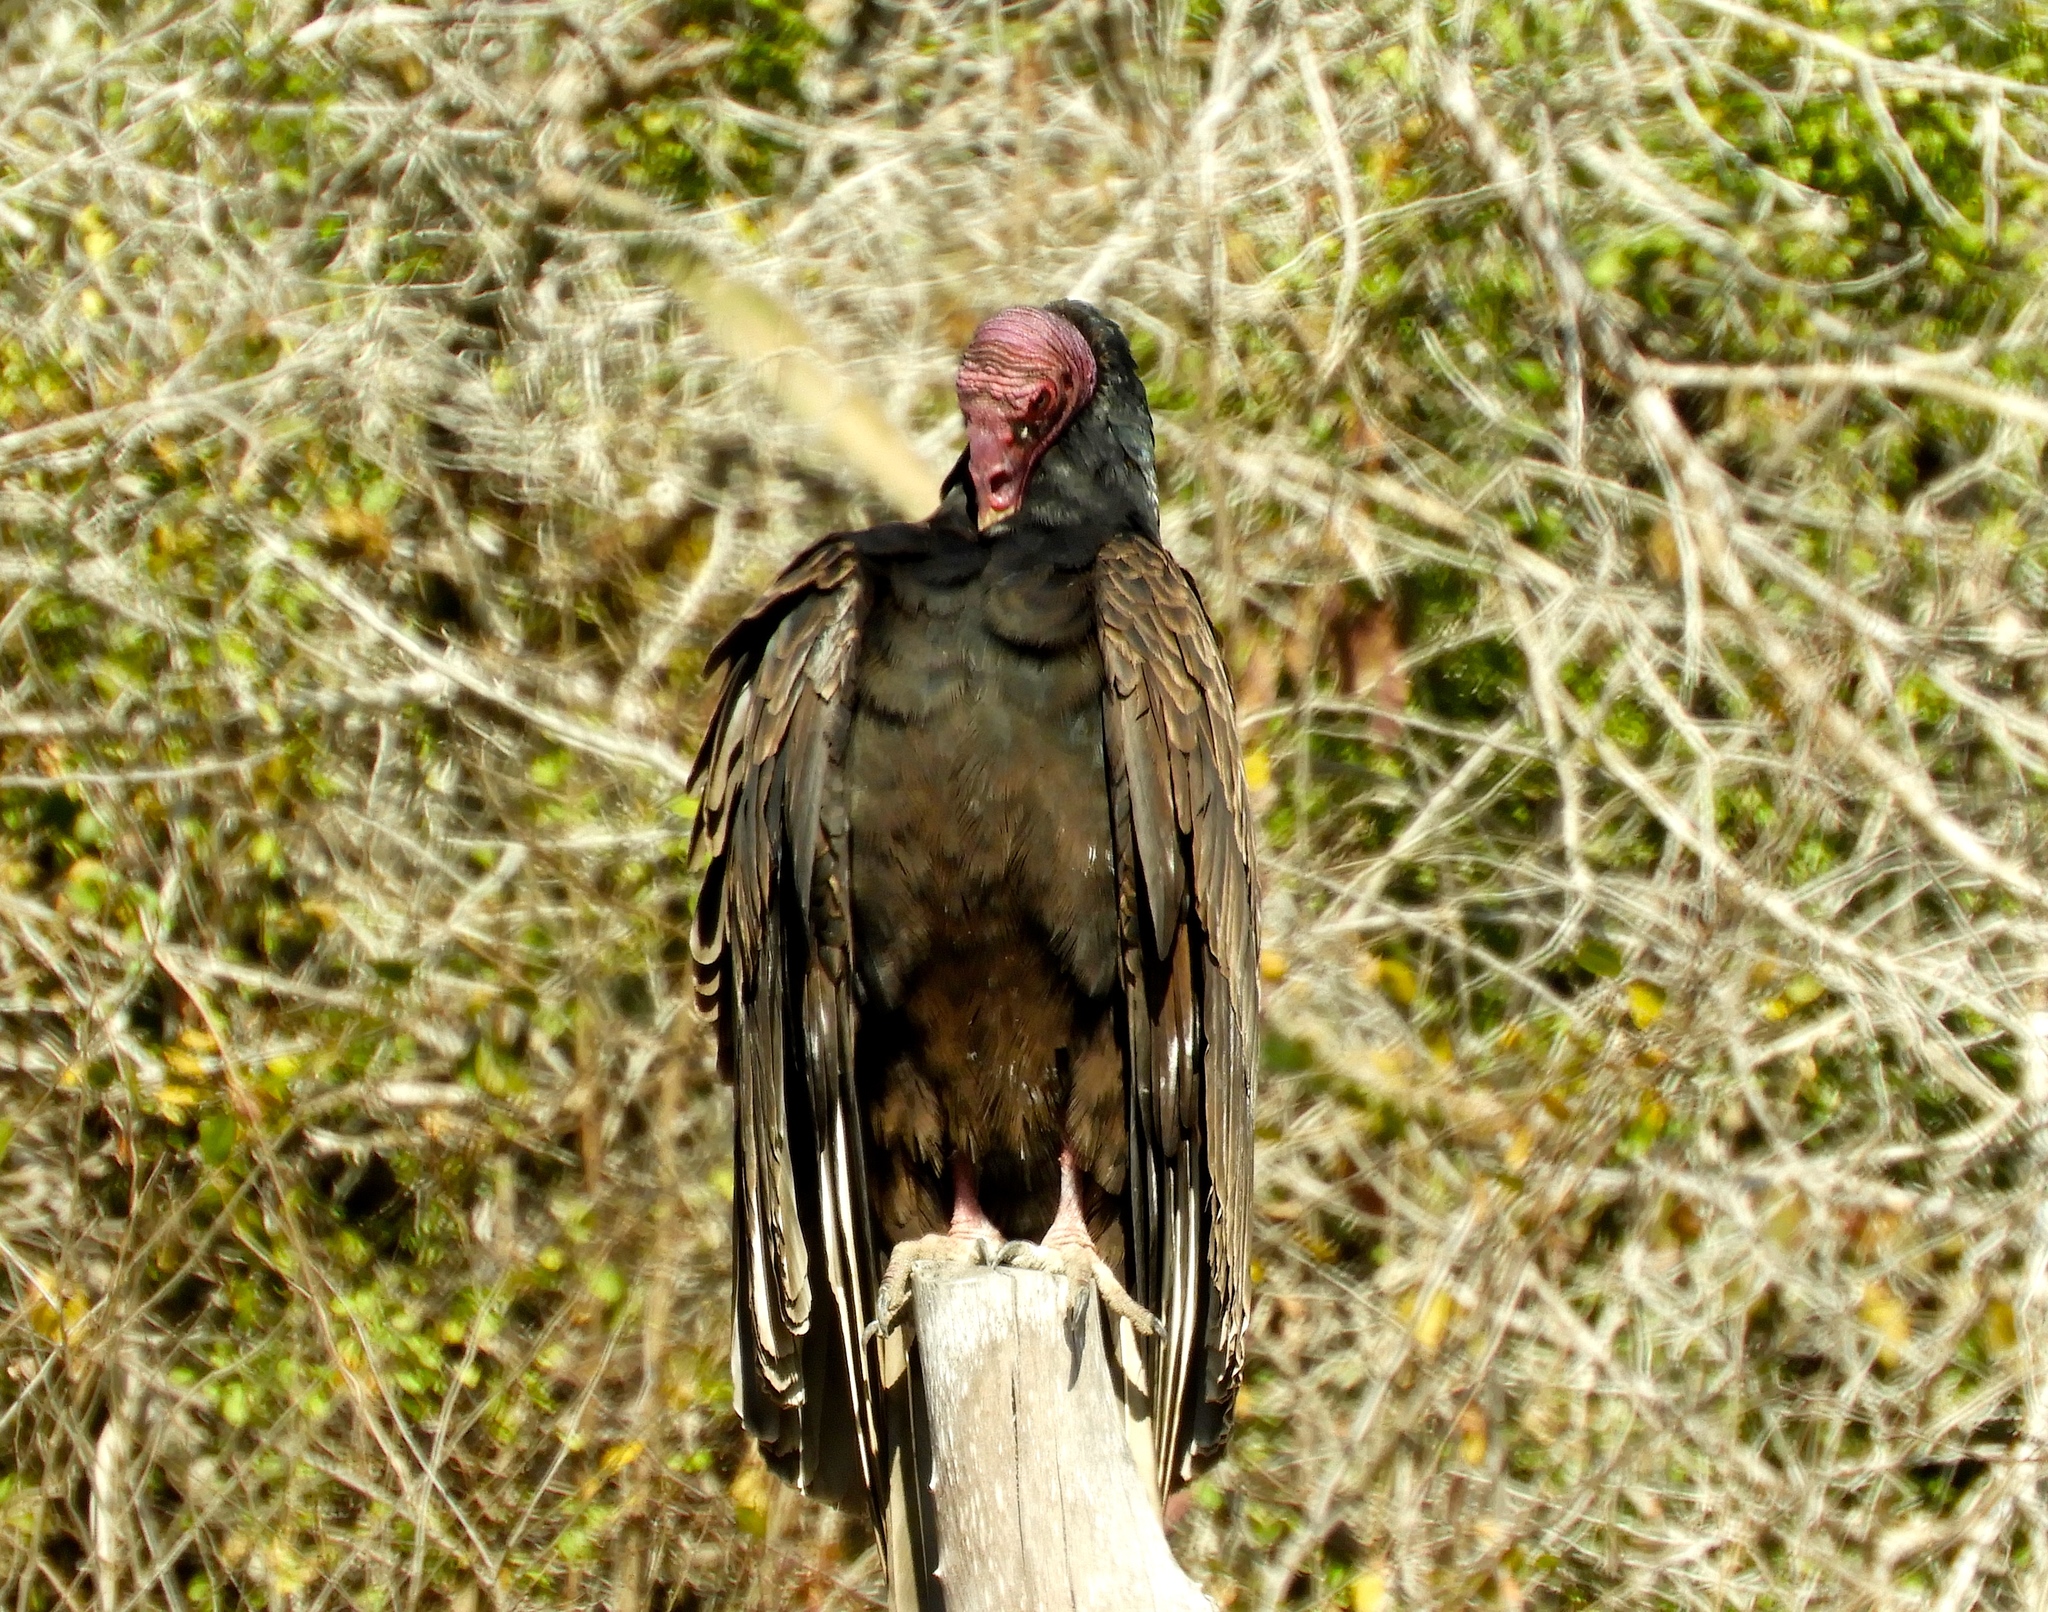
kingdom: Animalia
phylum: Chordata
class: Aves
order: Accipitriformes
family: Cathartidae
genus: Cathartes
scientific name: Cathartes aura
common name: Turkey vulture
